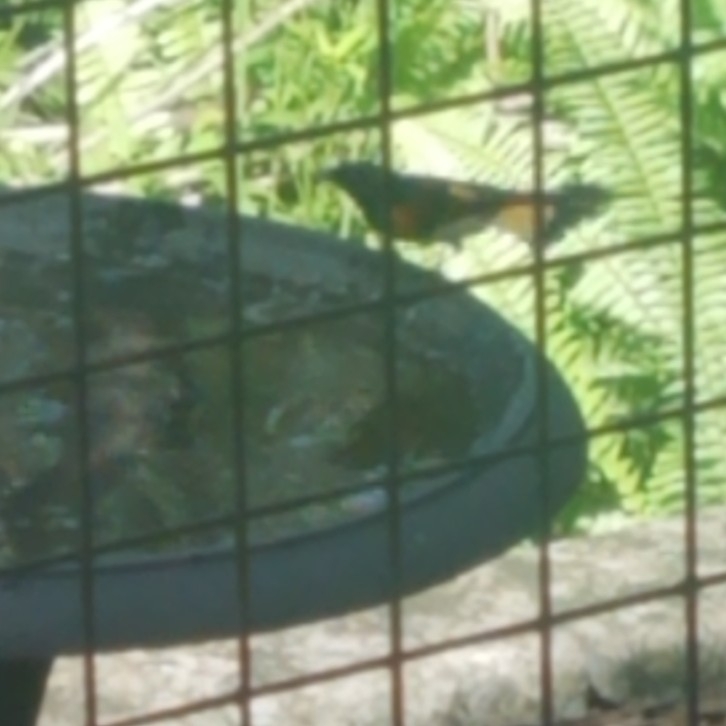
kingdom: Animalia
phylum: Chordata
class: Aves
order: Passeriformes
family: Parulidae
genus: Setophaga
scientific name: Setophaga ruticilla
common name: American redstart
